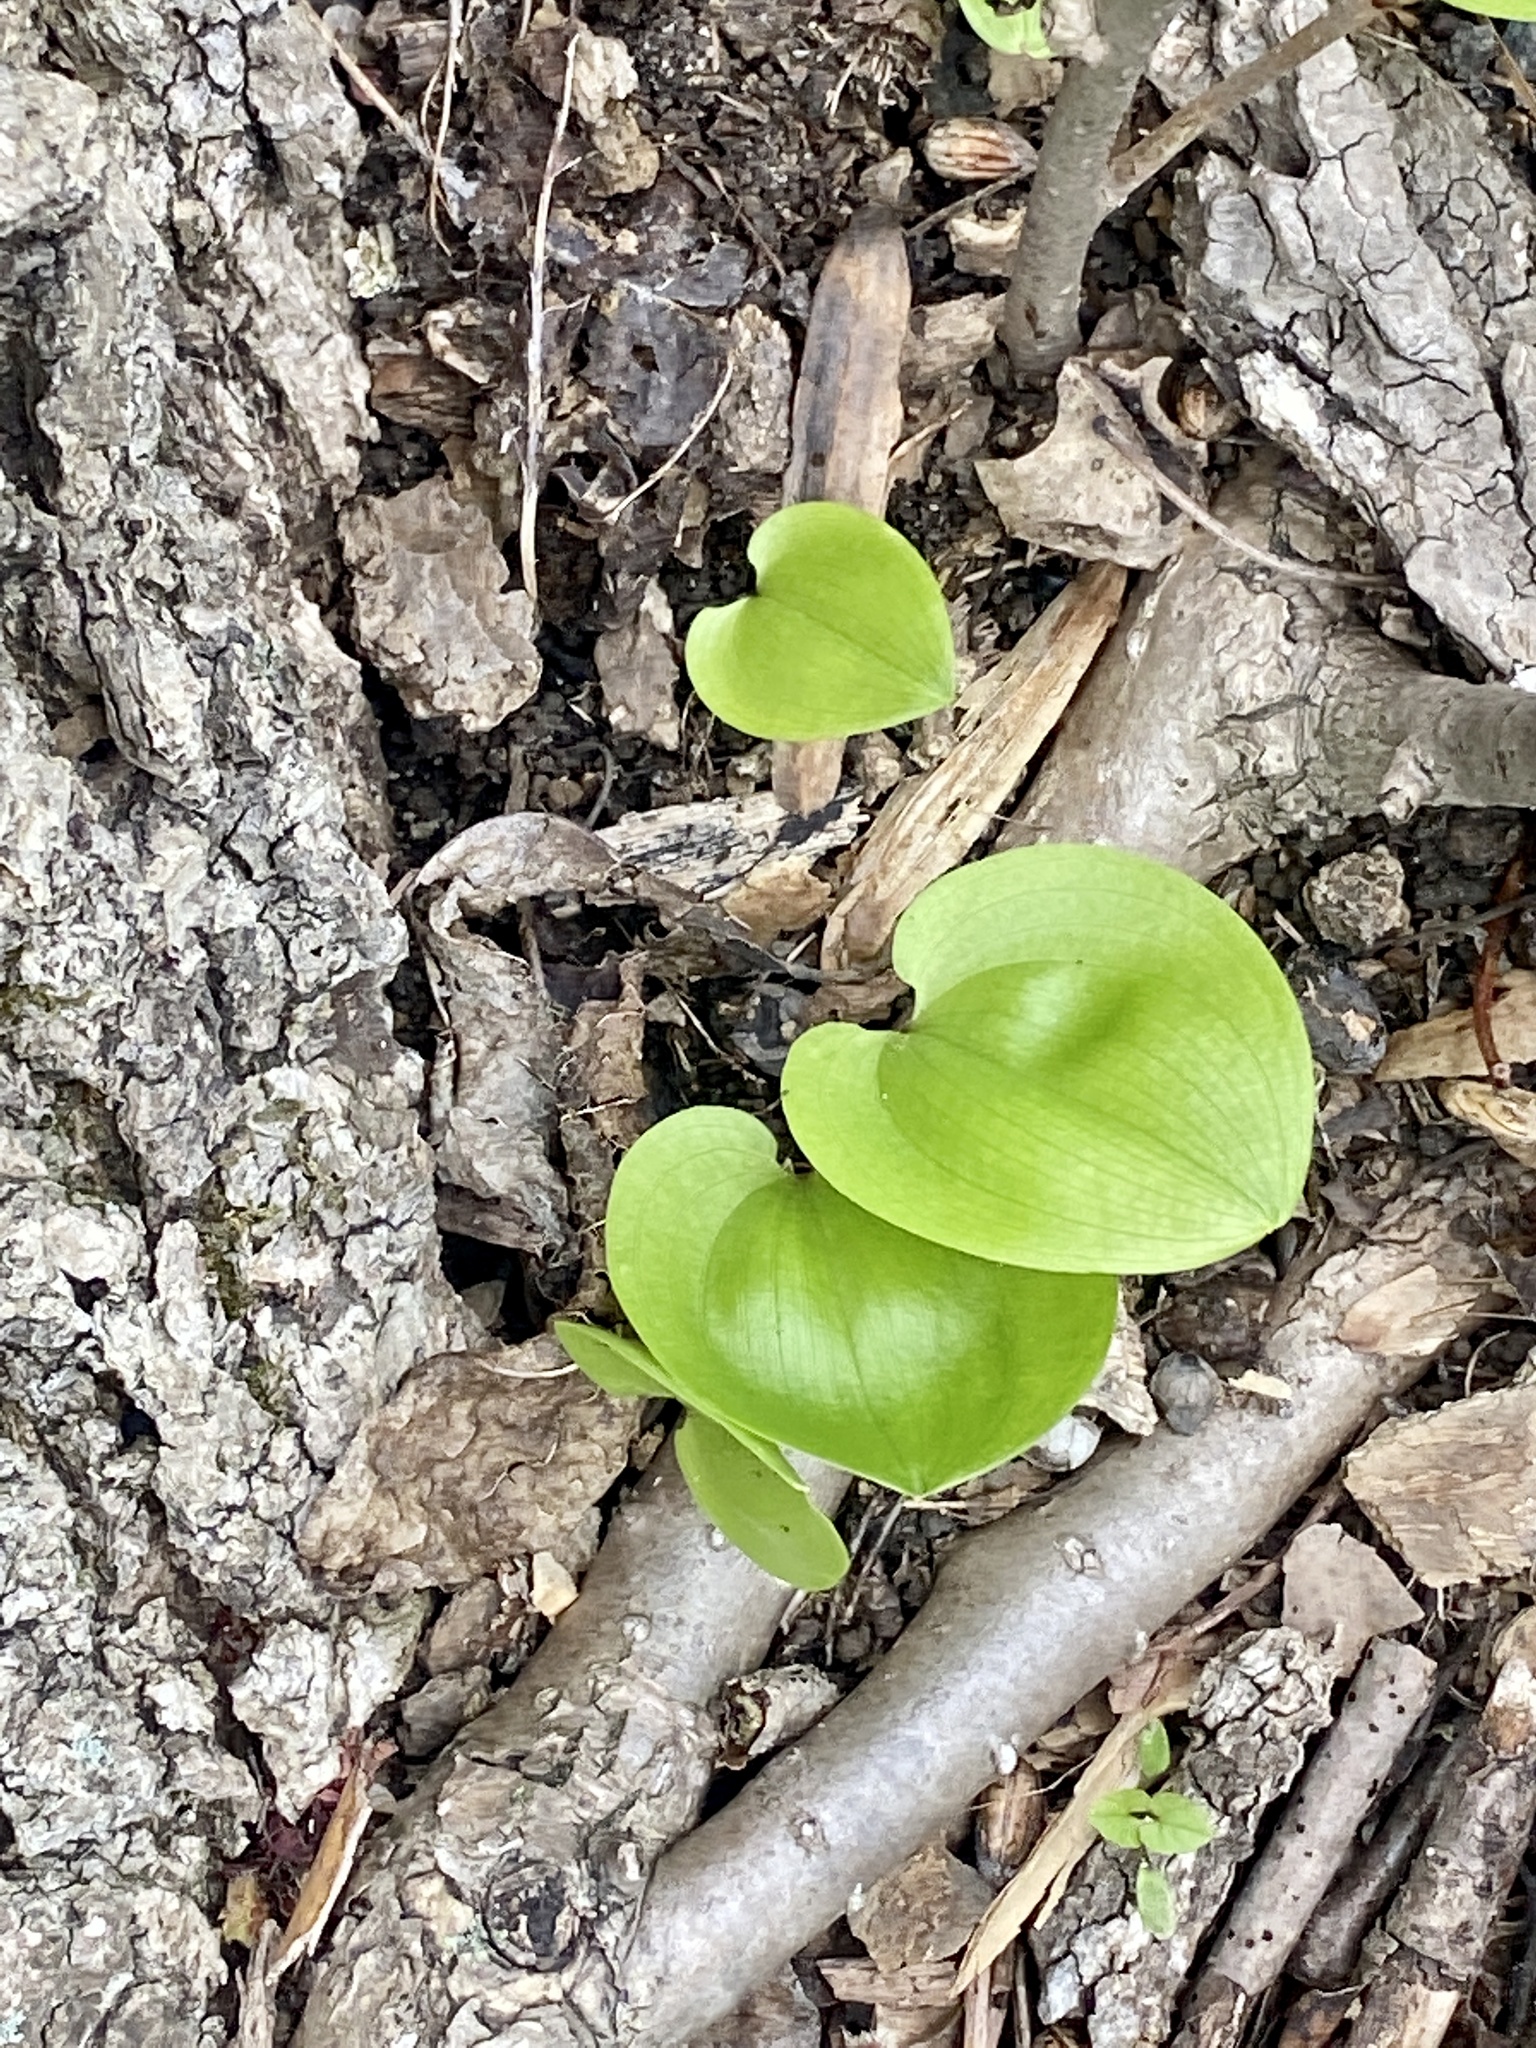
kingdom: Plantae
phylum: Tracheophyta
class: Liliopsida
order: Asparagales
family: Asparagaceae
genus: Maianthemum
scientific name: Maianthemum canadense
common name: False lily-of-the-valley
